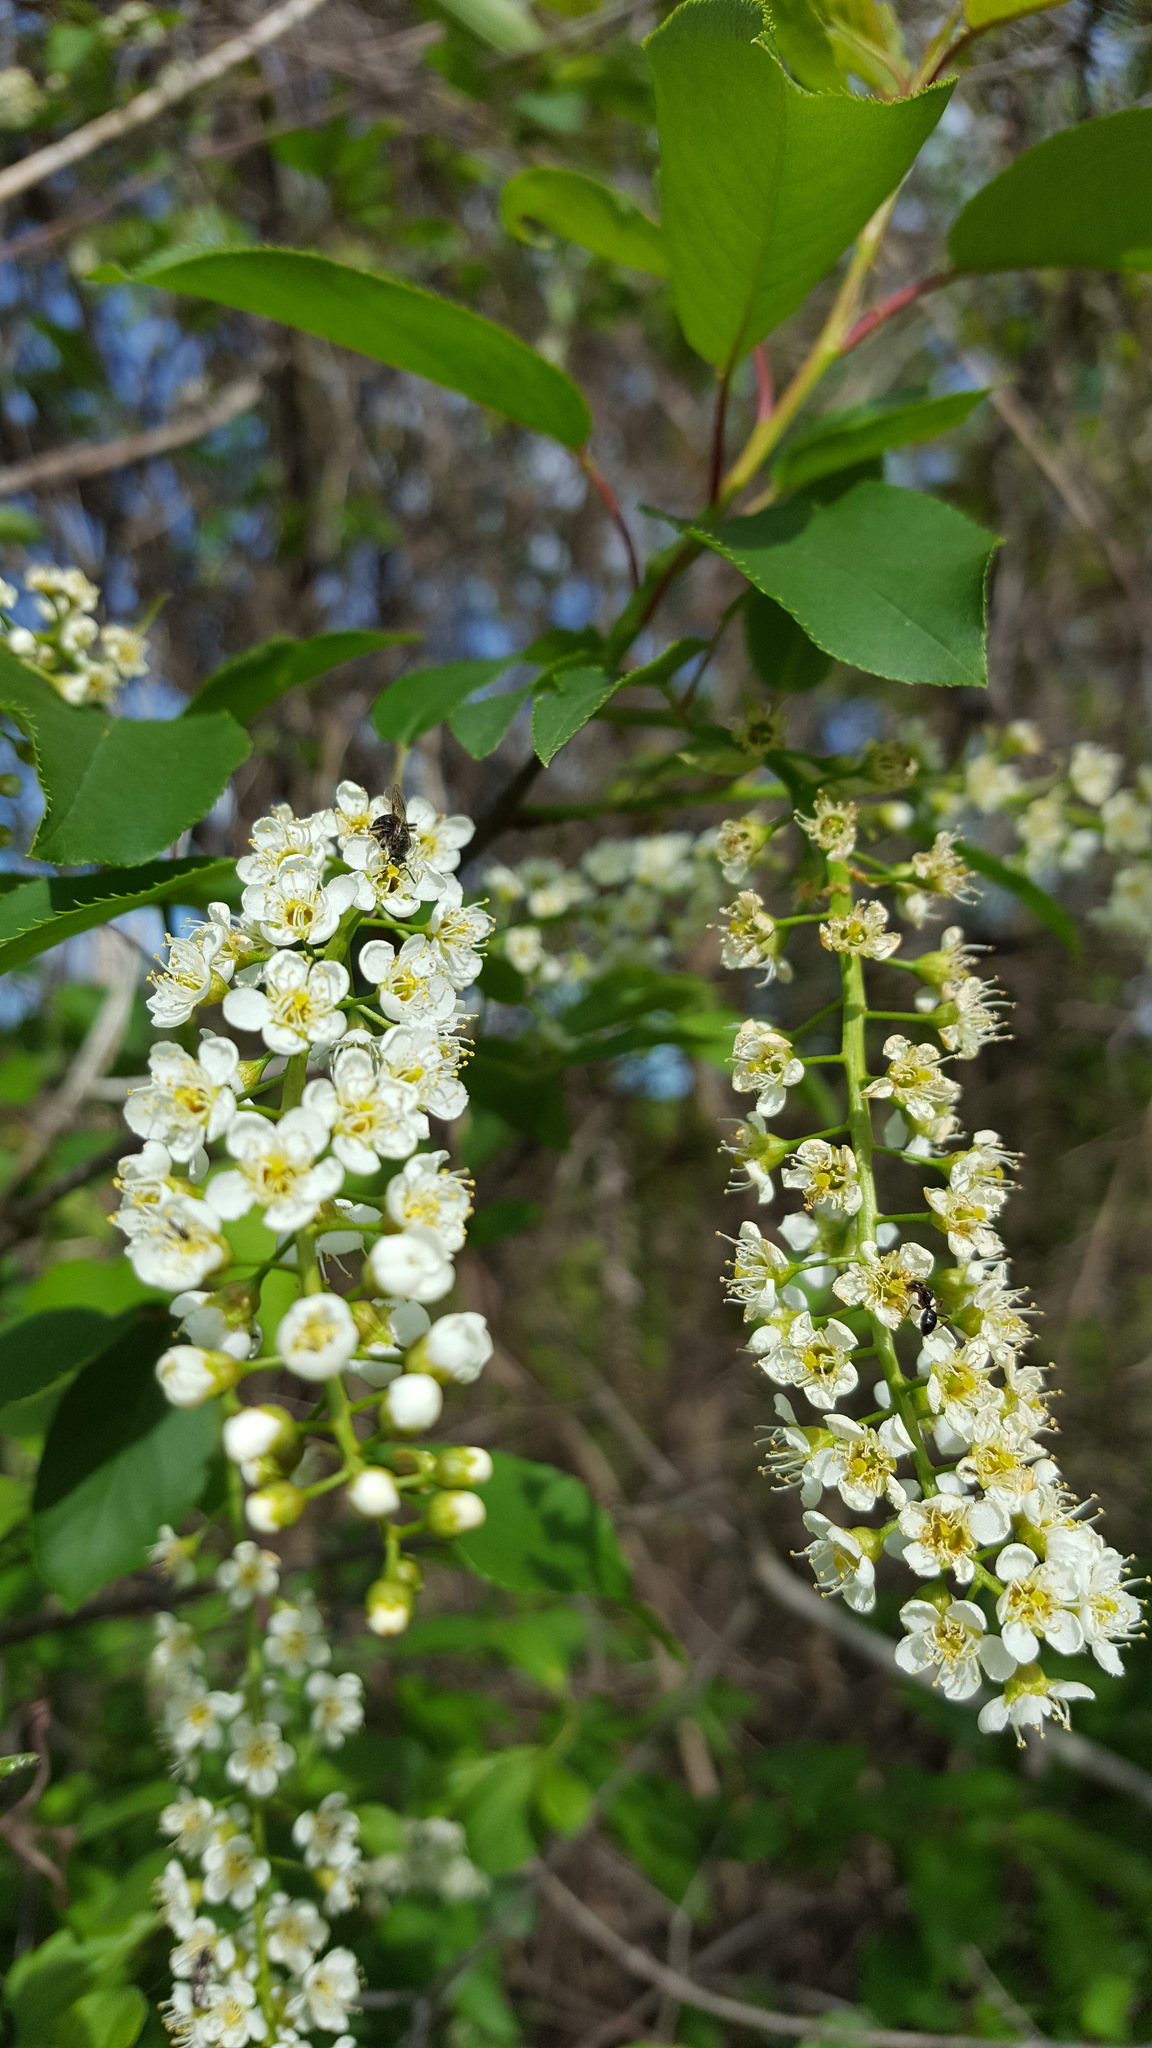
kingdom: Plantae
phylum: Tracheophyta
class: Magnoliopsida
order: Rosales
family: Rosaceae
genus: Prunus
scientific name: Prunus virginiana
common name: Chokecherry
